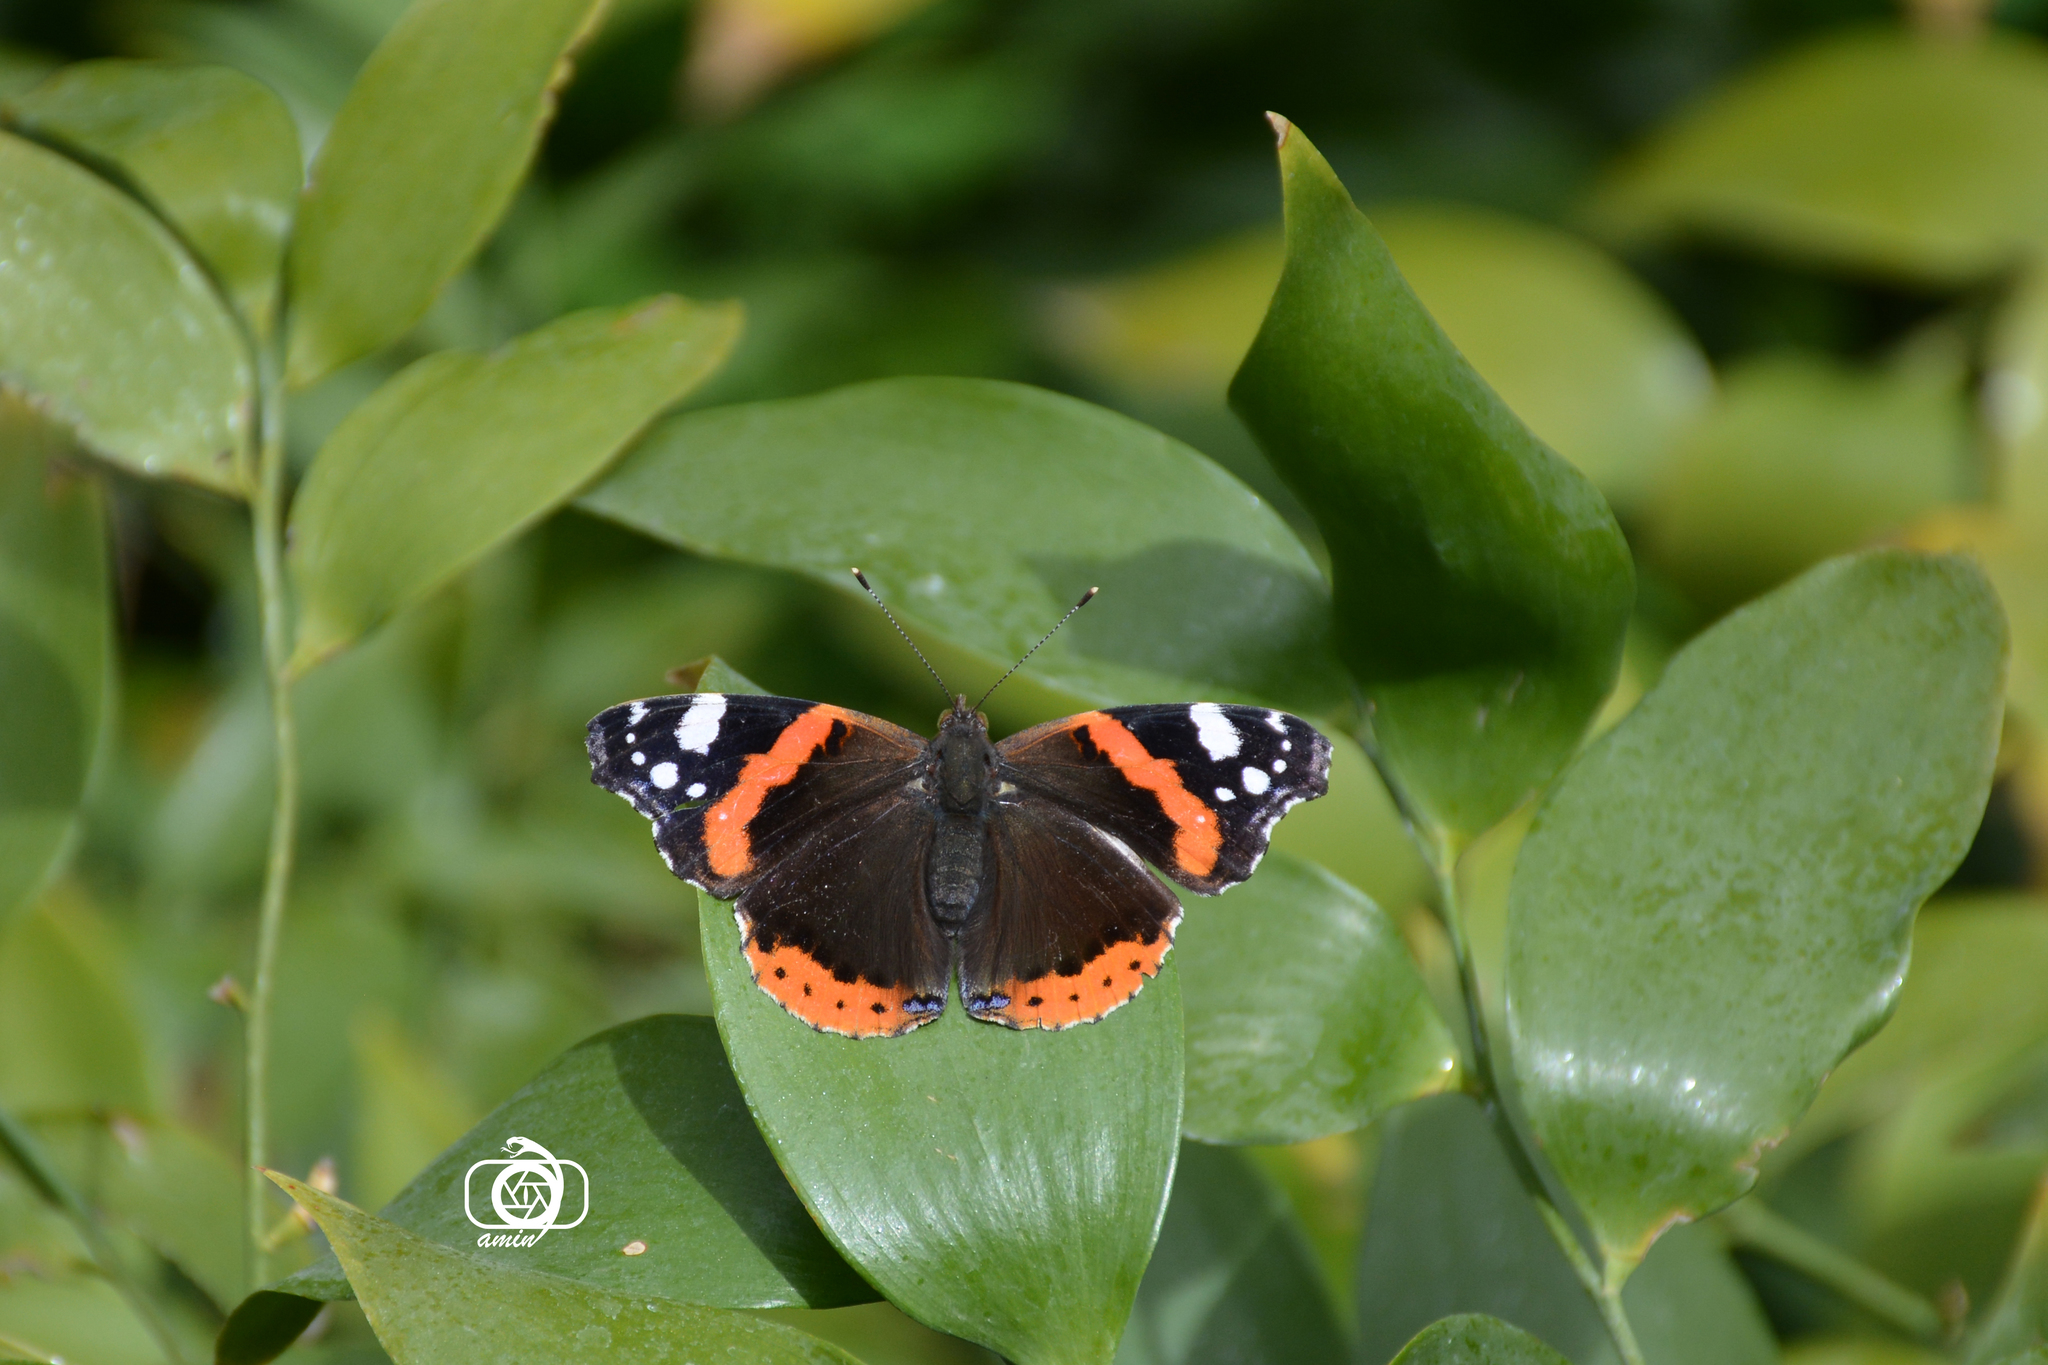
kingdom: Animalia
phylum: Arthropoda
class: Insecta
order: Lepidoptera
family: Nymphalidae
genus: Vanessa
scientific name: Vanessa atalanta
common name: Red admiral
